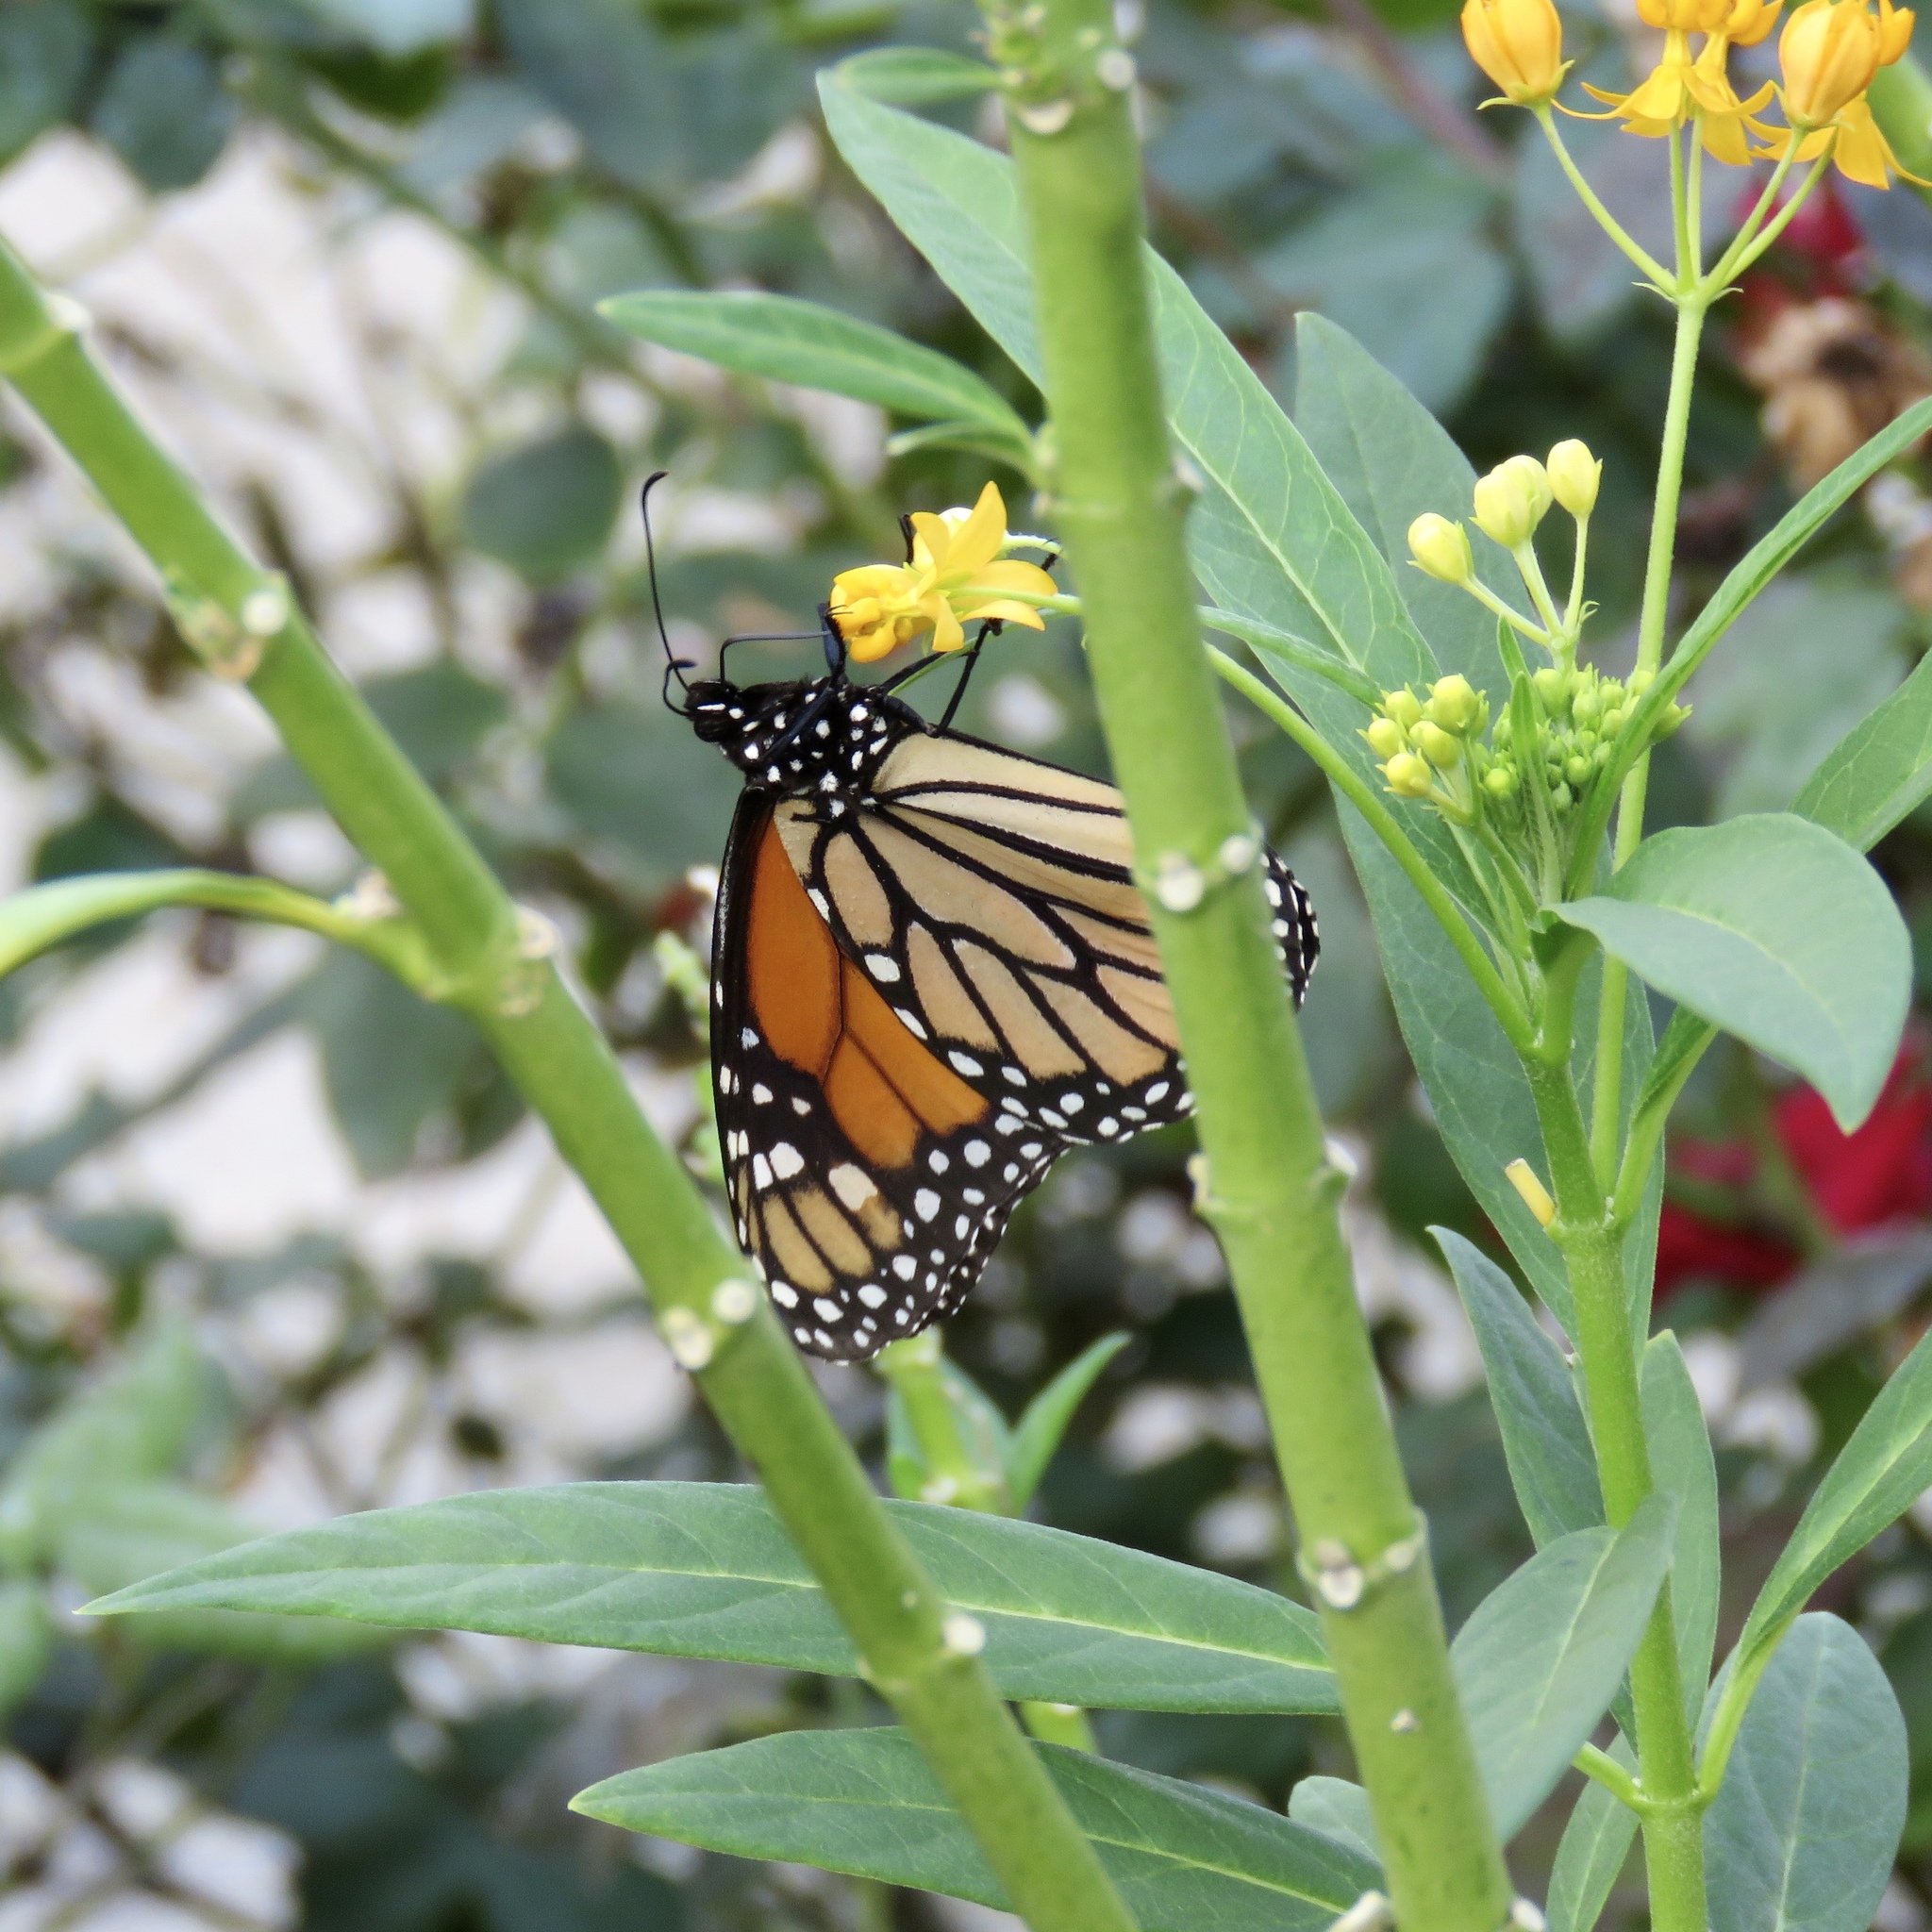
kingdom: Animalia
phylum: Arthropoda
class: Insecta
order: Lepidoptera
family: Nymphalidae
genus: Danaus
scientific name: Danaus plexippus
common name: Monarch
